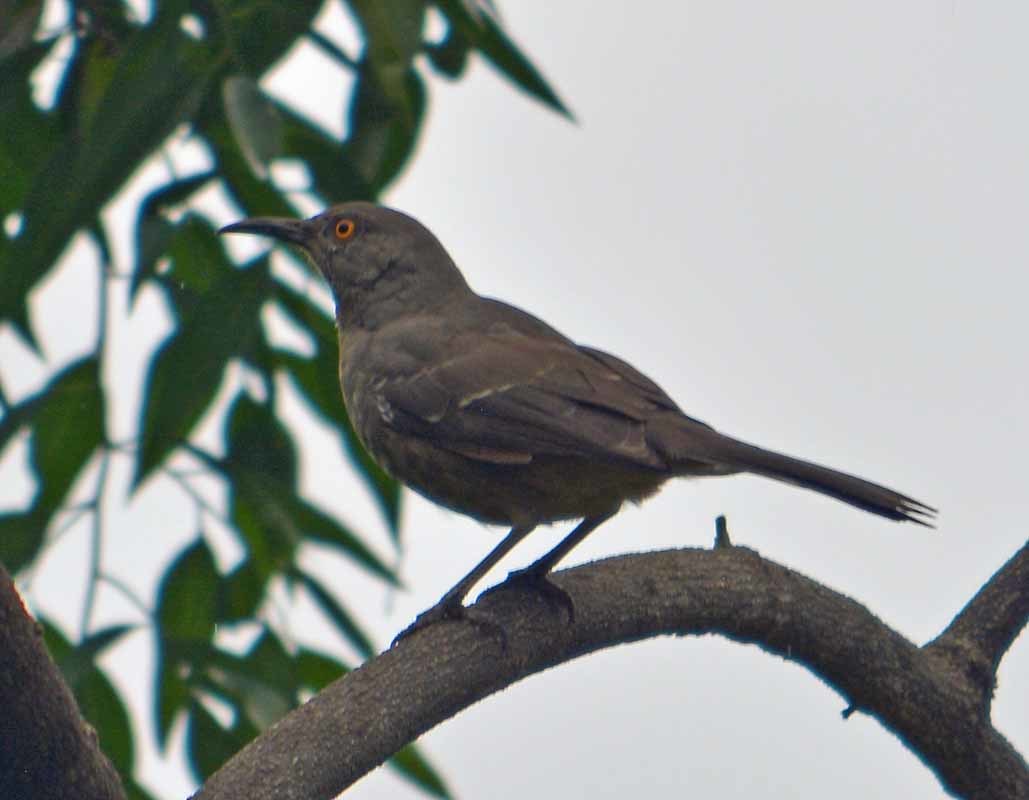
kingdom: Animalia
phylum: Chordata
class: Aves
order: Passeriformes
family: Mimidae
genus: Toxostoma
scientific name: Toxostoma curvirostre
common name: Curve-billed thrasher
